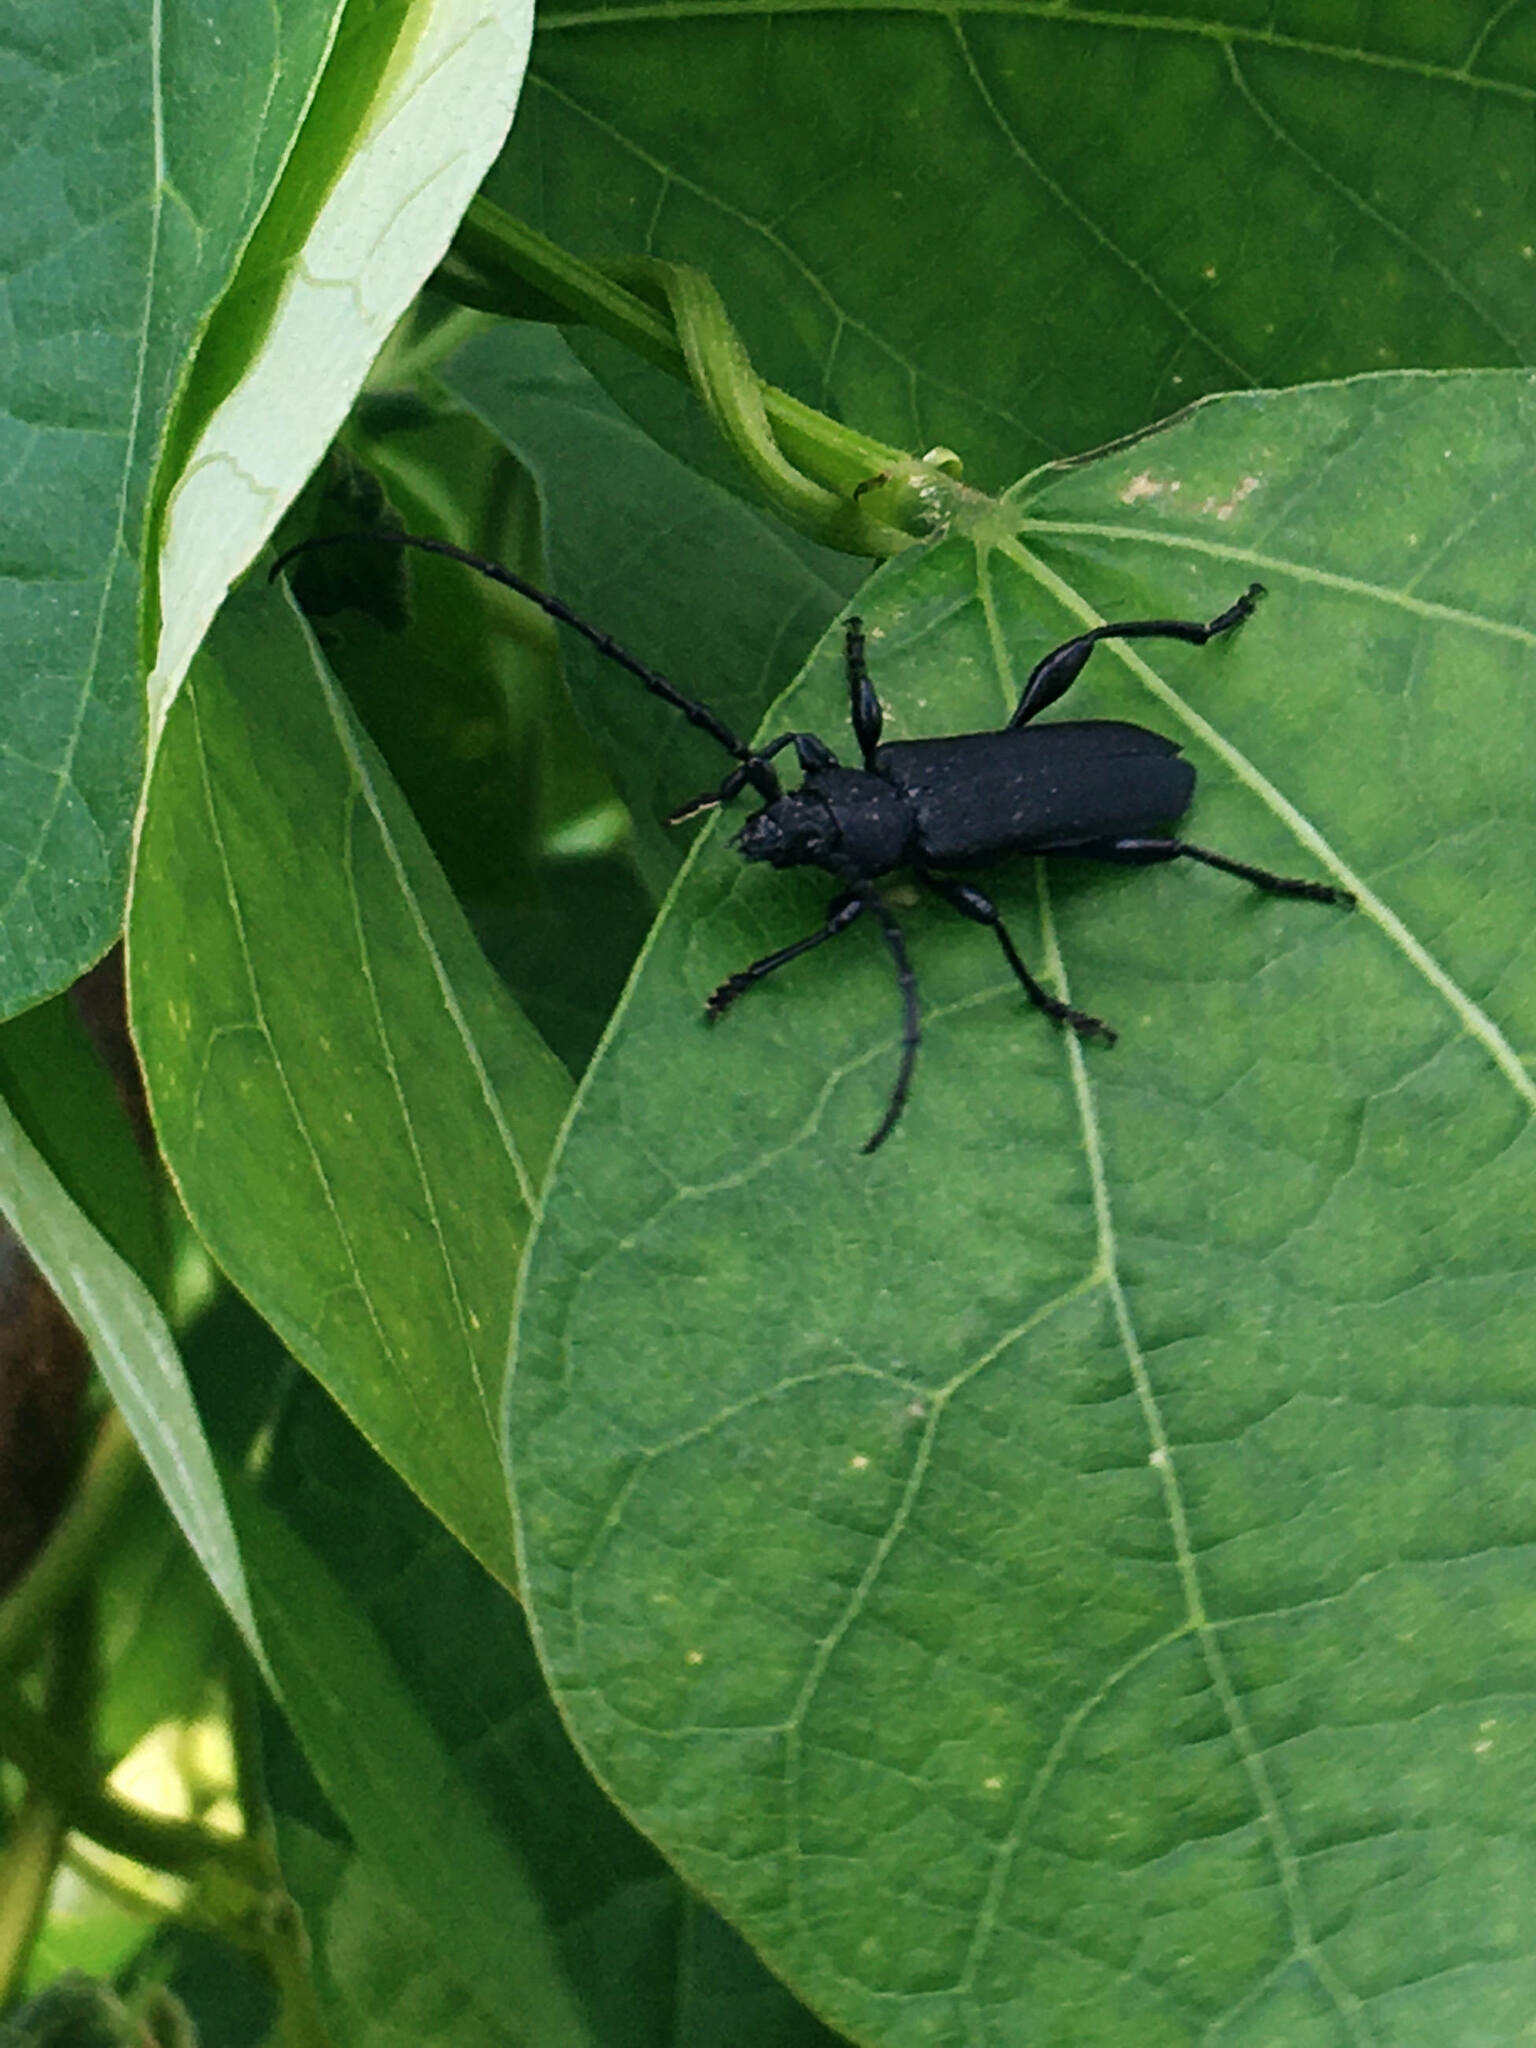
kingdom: Animalia
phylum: Arthropoda
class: Insecta
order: Coleoptera
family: Cerambycidae
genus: Ropalopus
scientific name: Ropalopus clavipes
